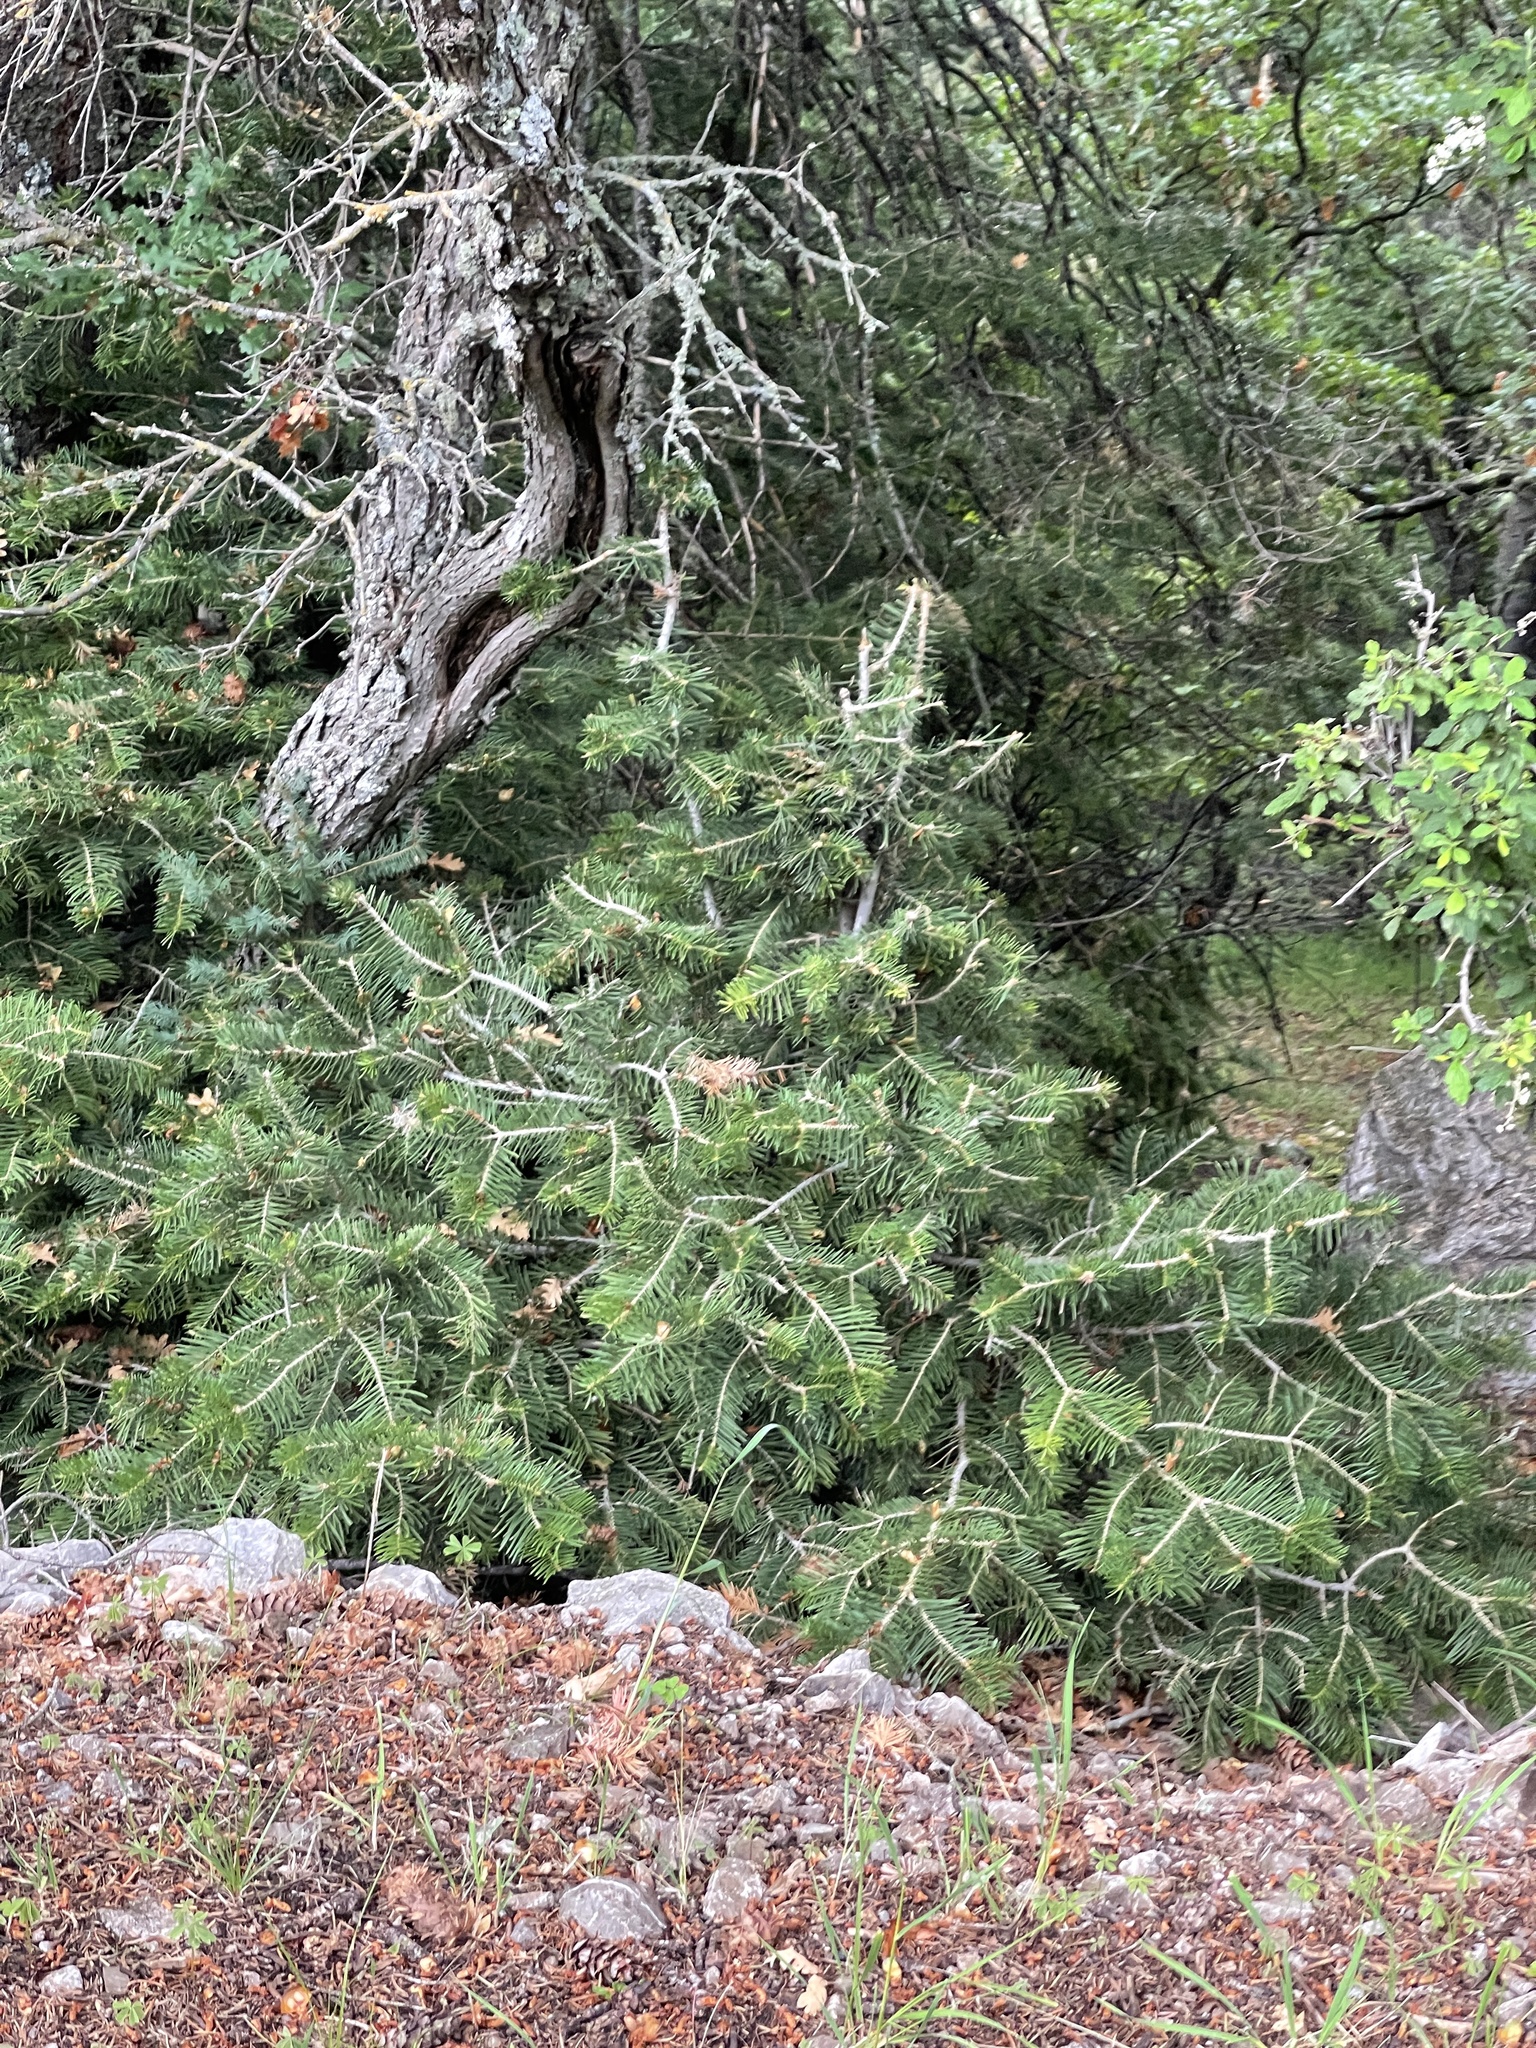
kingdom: Plantae
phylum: Tracheophyta
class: Pinopsida
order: Pinales
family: Pinaceae
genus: Abies
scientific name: Abies concolor
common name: Colorado fir
